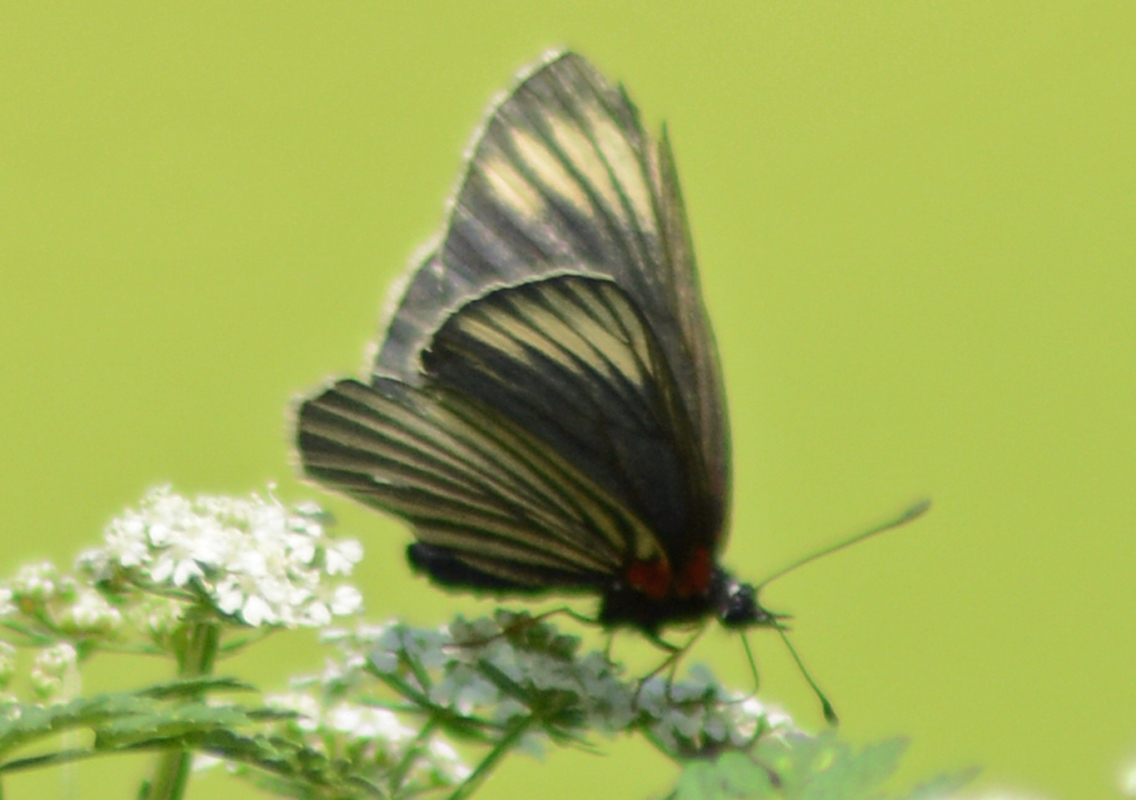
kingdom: Animalia
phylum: Arthropoda
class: Insecta
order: Lepidoptera
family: Nymphalidae
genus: Chlosyne
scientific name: Chlosyne ehrenbergii
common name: White-rayed patch
